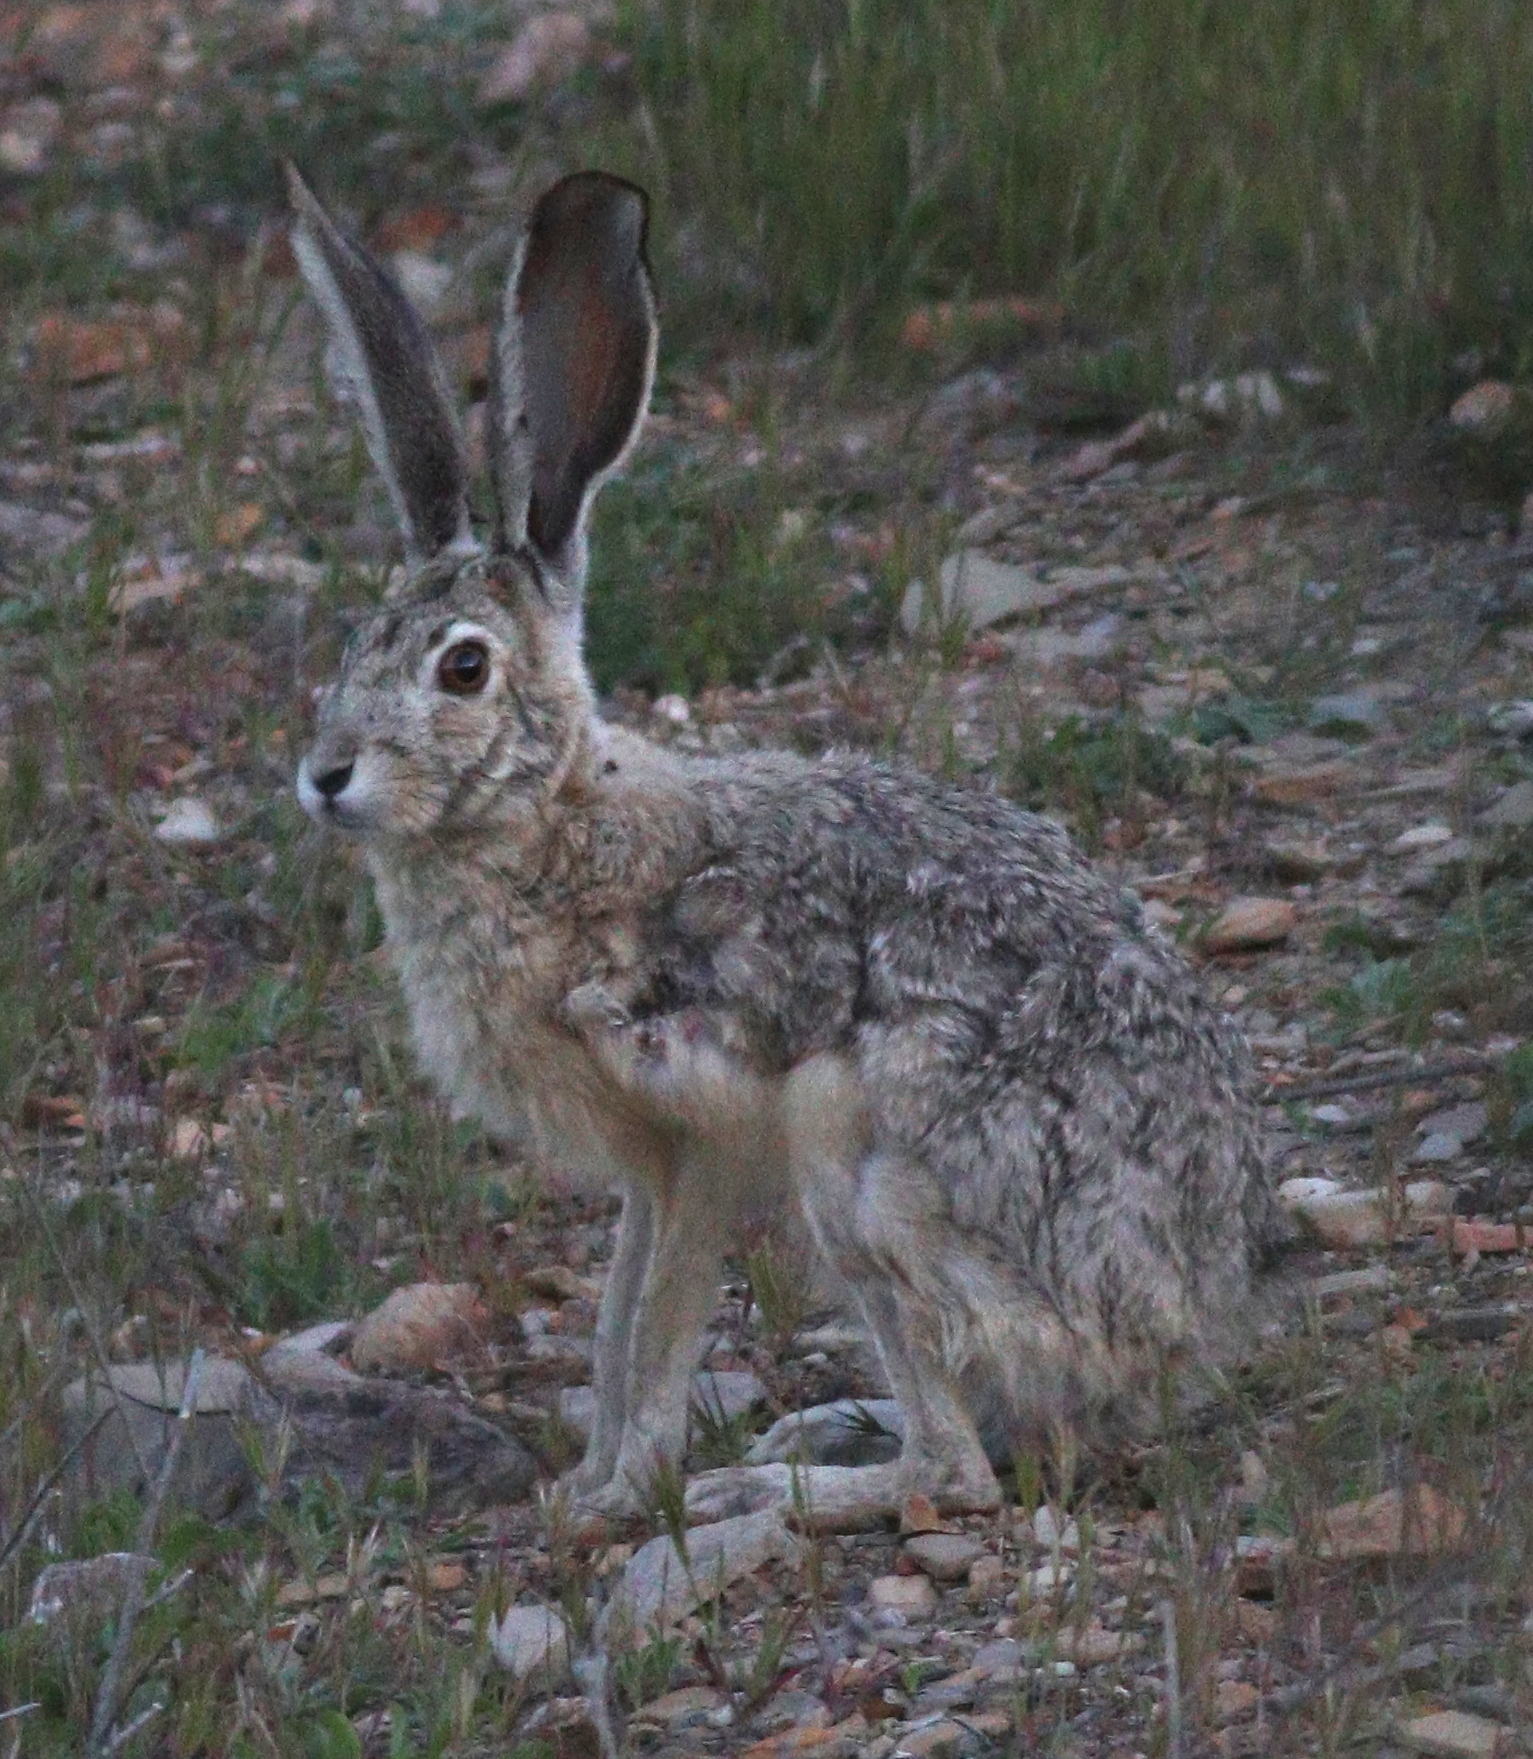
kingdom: Animalia
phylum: Chordata
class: Mammalia
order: Lagomorpha
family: Leporidae
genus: Lepus
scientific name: Lepus californicus
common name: Black-tailed jackrabbit
